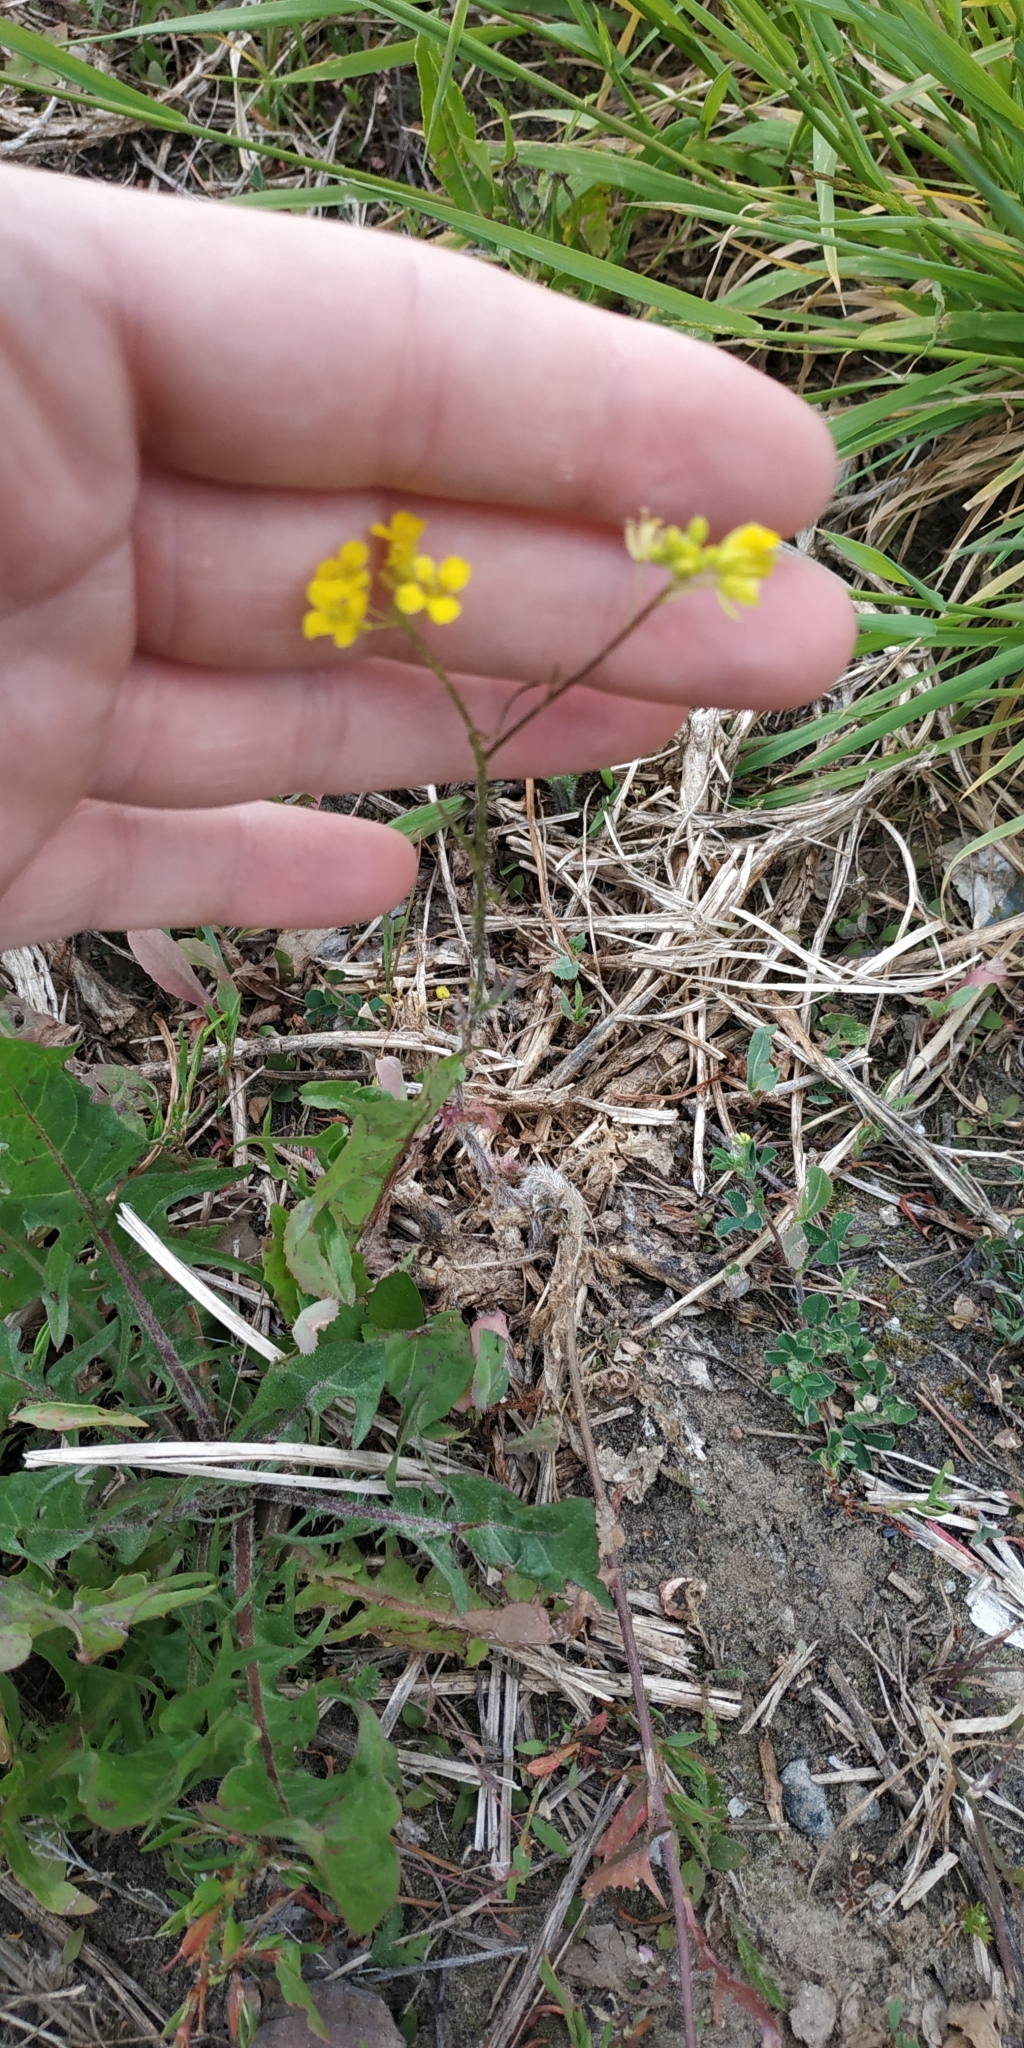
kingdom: Plantae
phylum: Tracheophyta
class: Magnoliopsida
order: Brassicales
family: Brassicaceae
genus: Sisymbrium
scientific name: Sisymbrium loeselii
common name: False london-rocket
